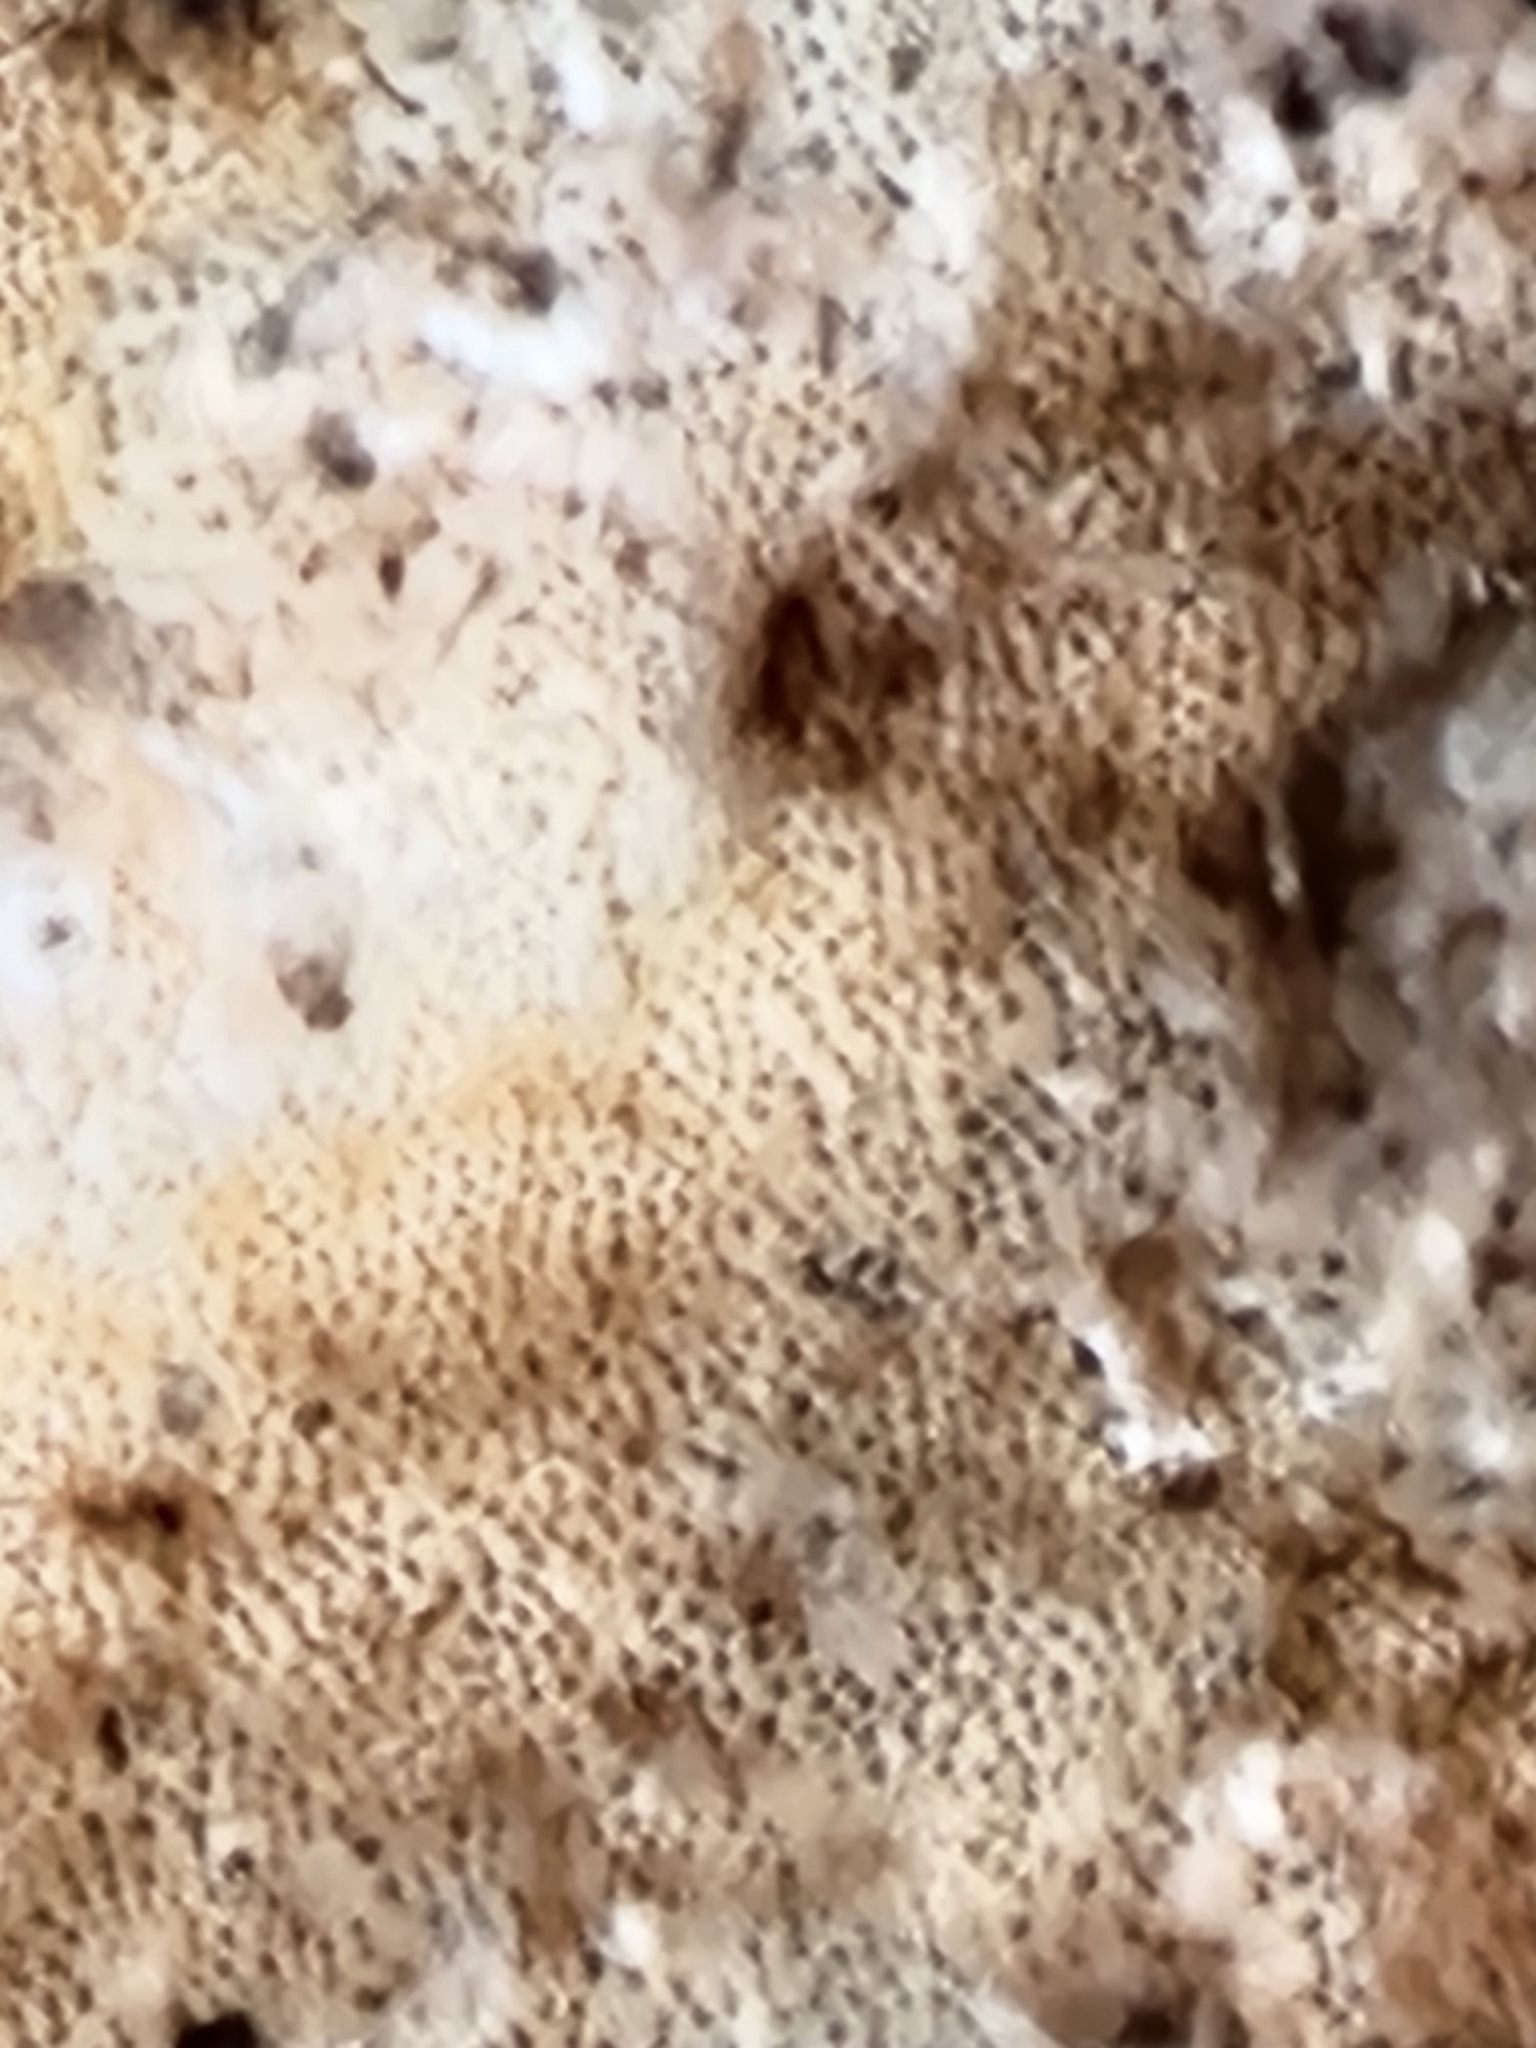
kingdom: Fungi
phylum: Basidiomycota
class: Agaricomycetes
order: Polyporales
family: Fomitopsidaceae
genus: Fomitopsis
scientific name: Fomitopsis betulina
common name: Birch polypore
